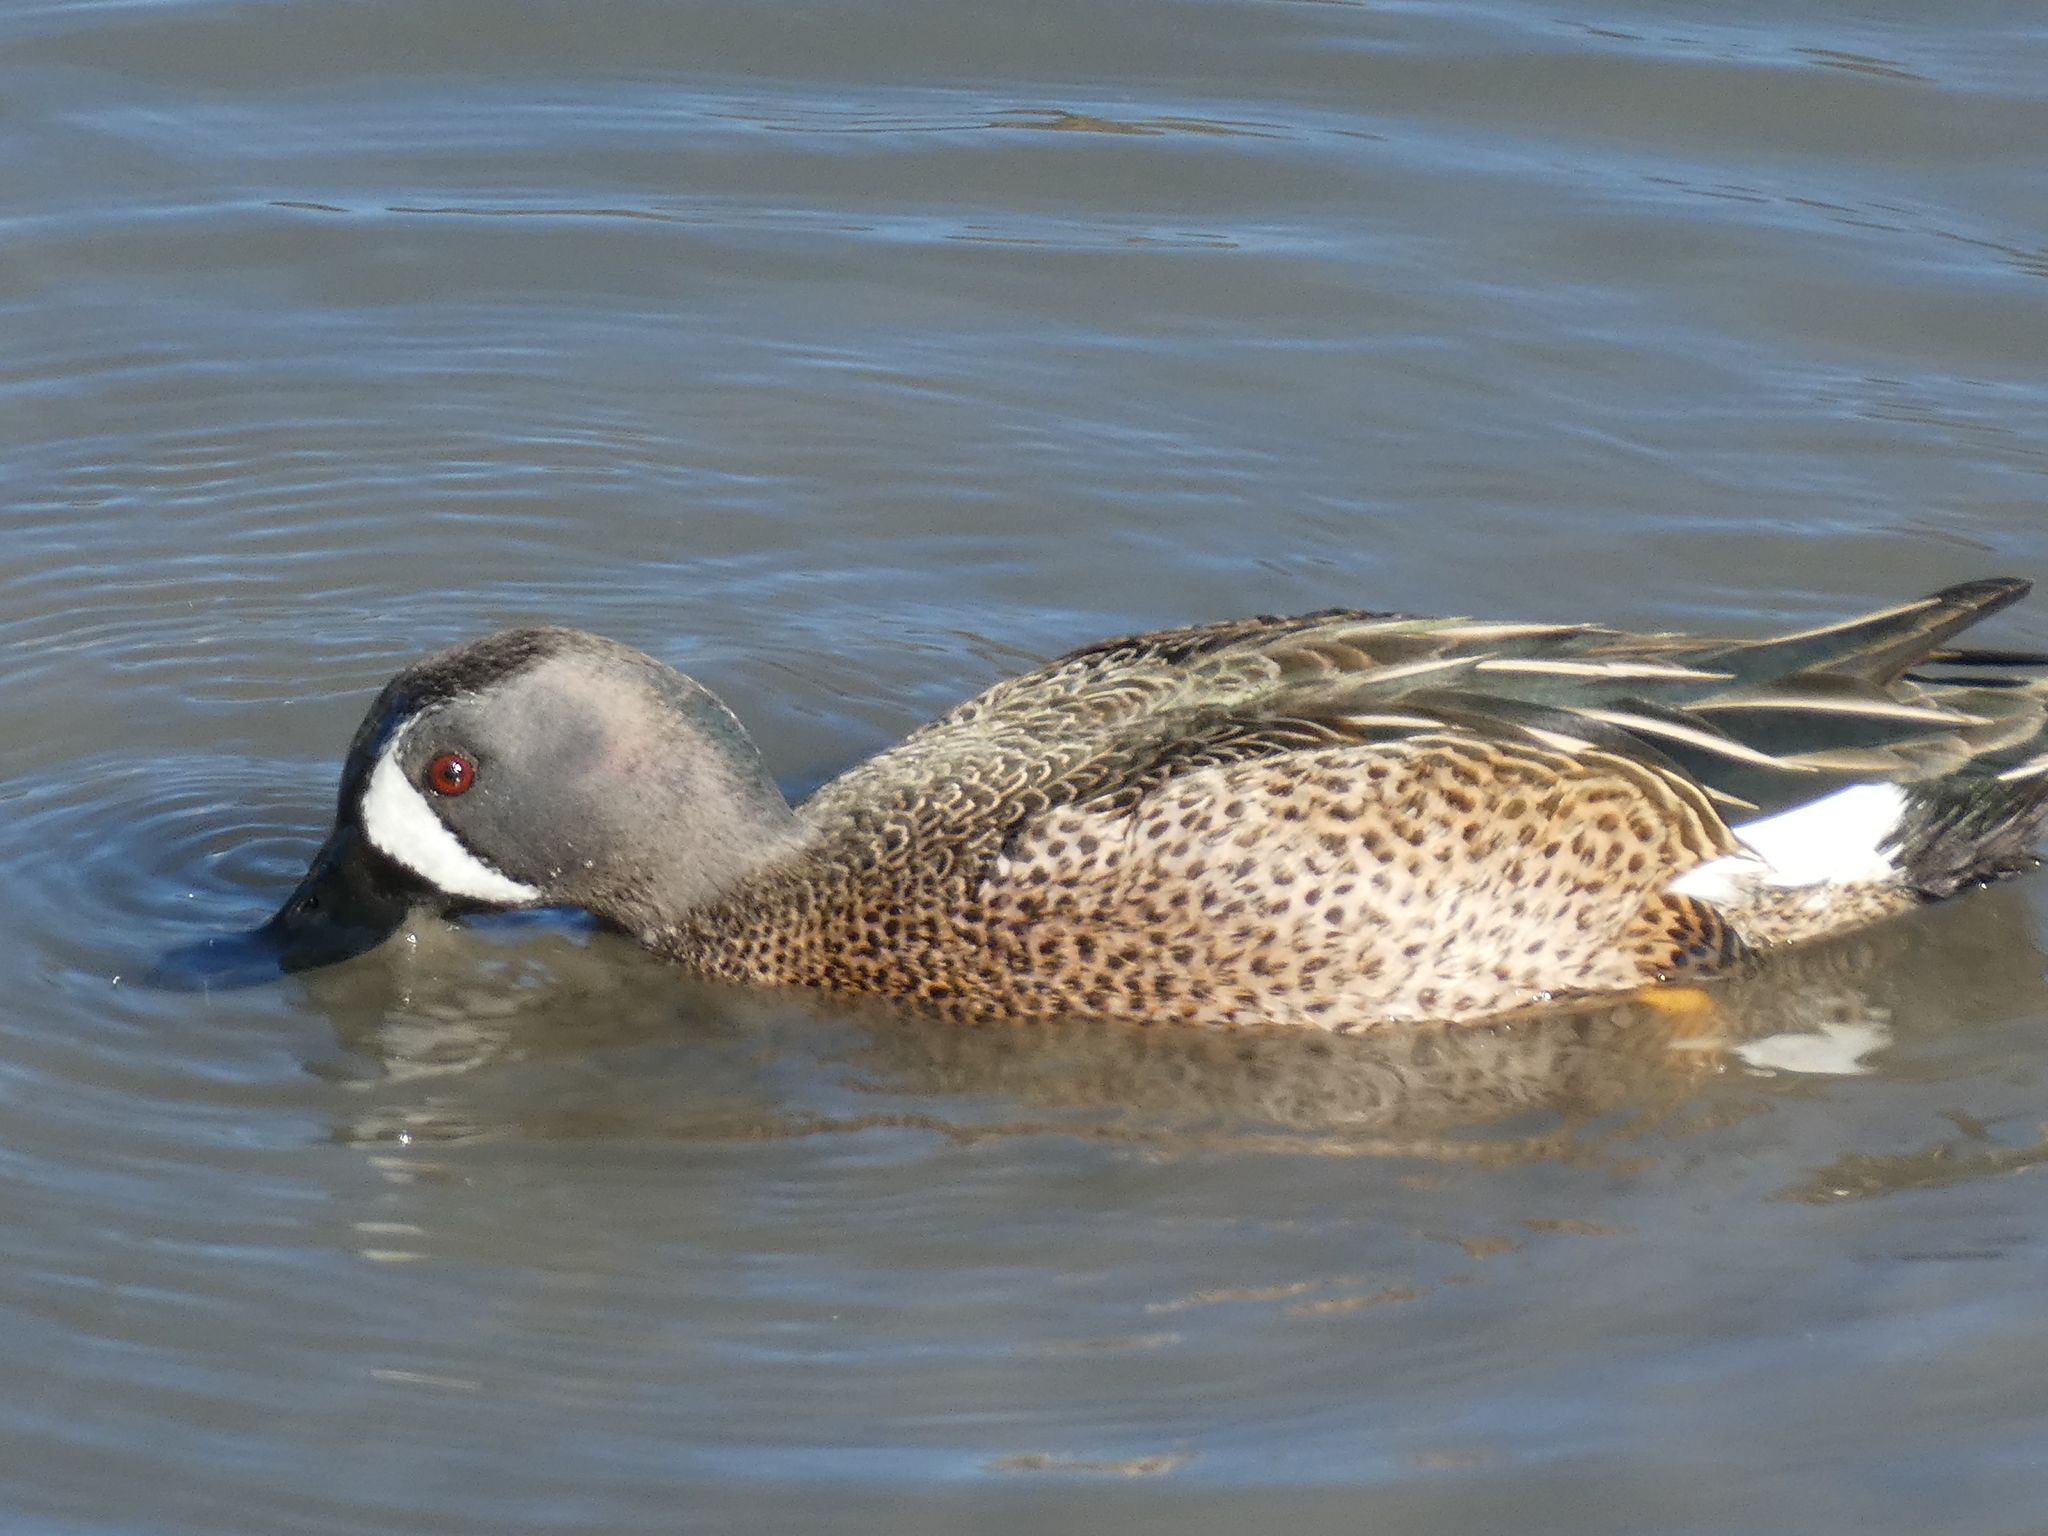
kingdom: Animalia
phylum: Chordata
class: Aves
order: Anseriformes
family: Anatidae
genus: Spatula
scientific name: Spatula discors
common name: Blue-winged teal
